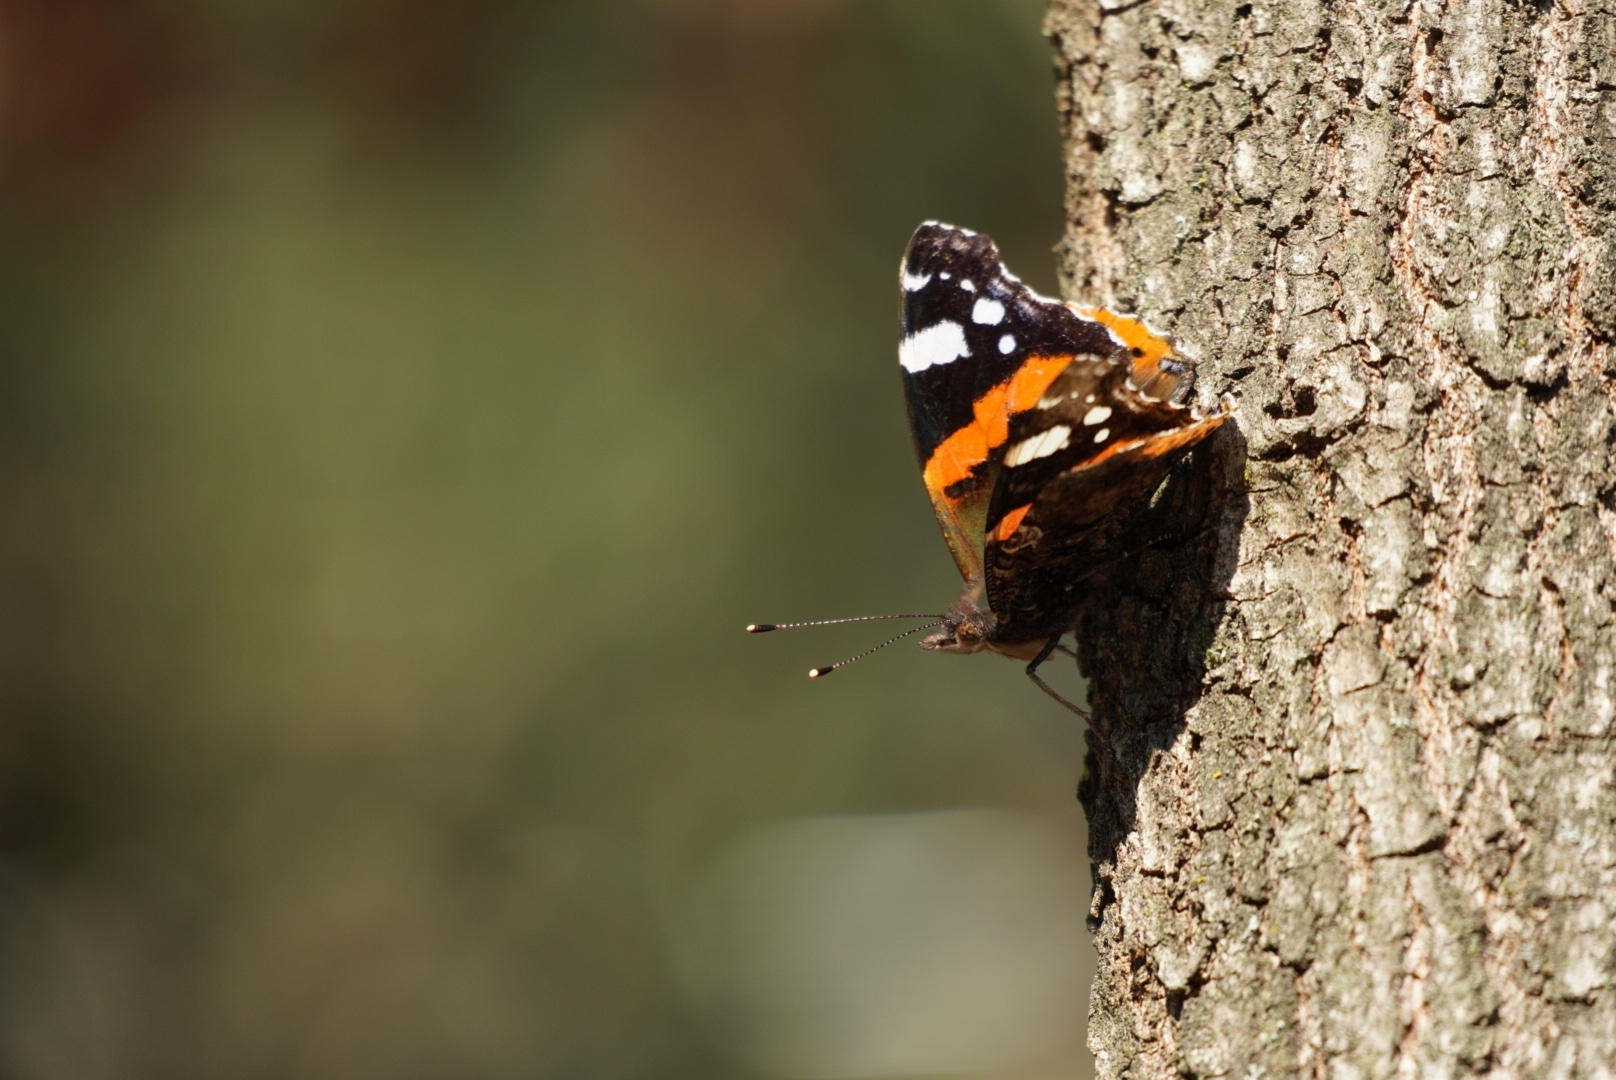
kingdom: Animalia
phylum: Arthropoda
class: Insecta
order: Lepidoptera
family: Nymphalidae
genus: Vanessa
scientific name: Vanessa atalanta
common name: Red admiral
